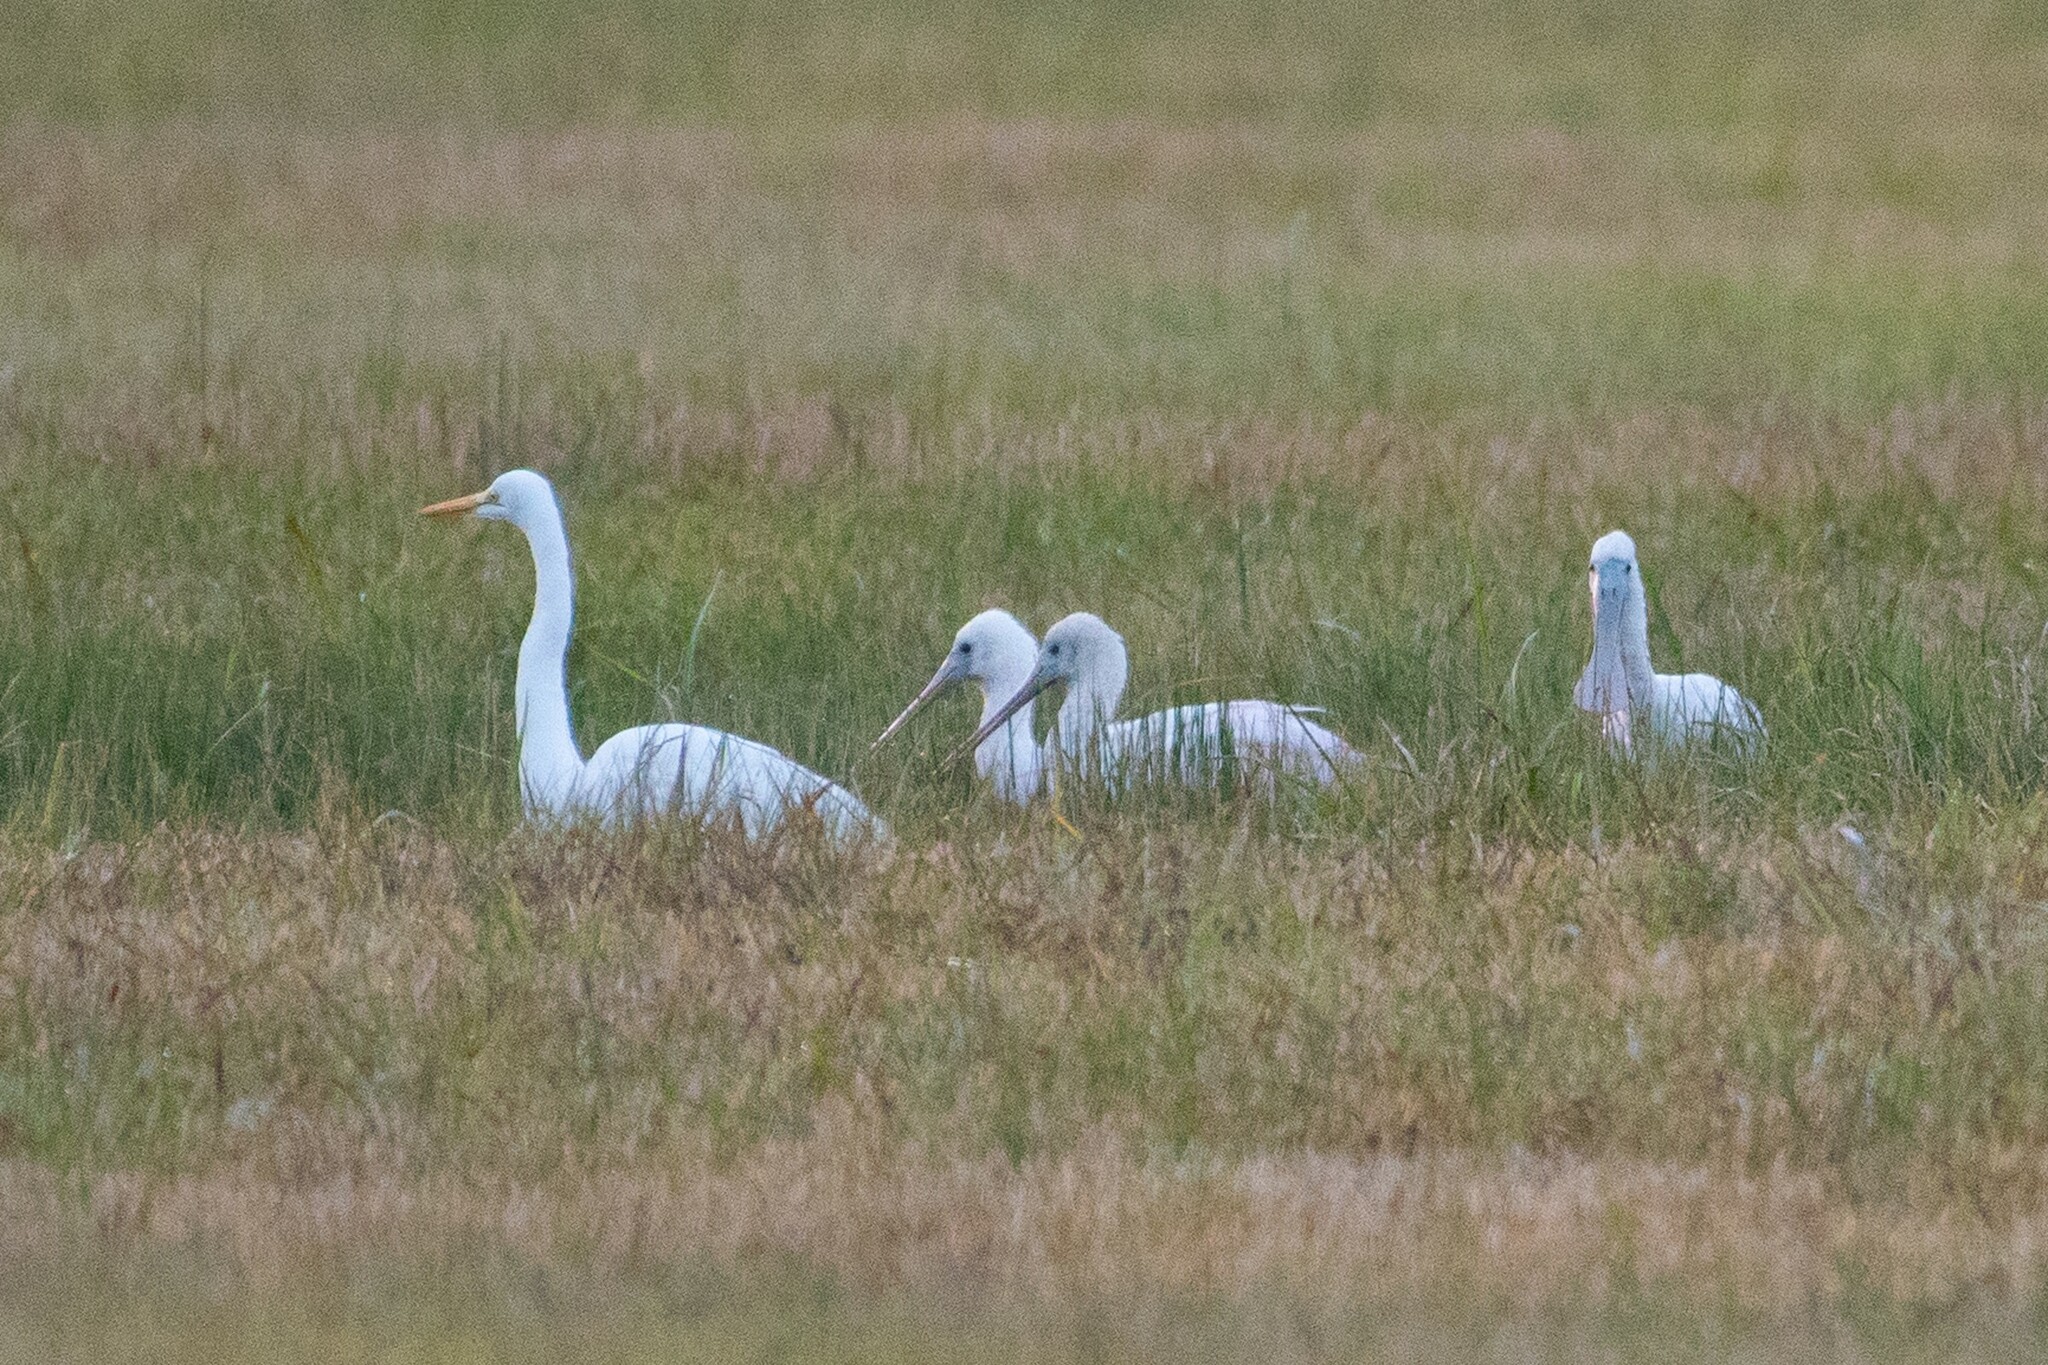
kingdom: Animalia
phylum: Chordata
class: Aves
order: Pelecaniformes
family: Threskiornithidae
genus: Platalea
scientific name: Platalea ajaja
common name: Roseate spoonbill
